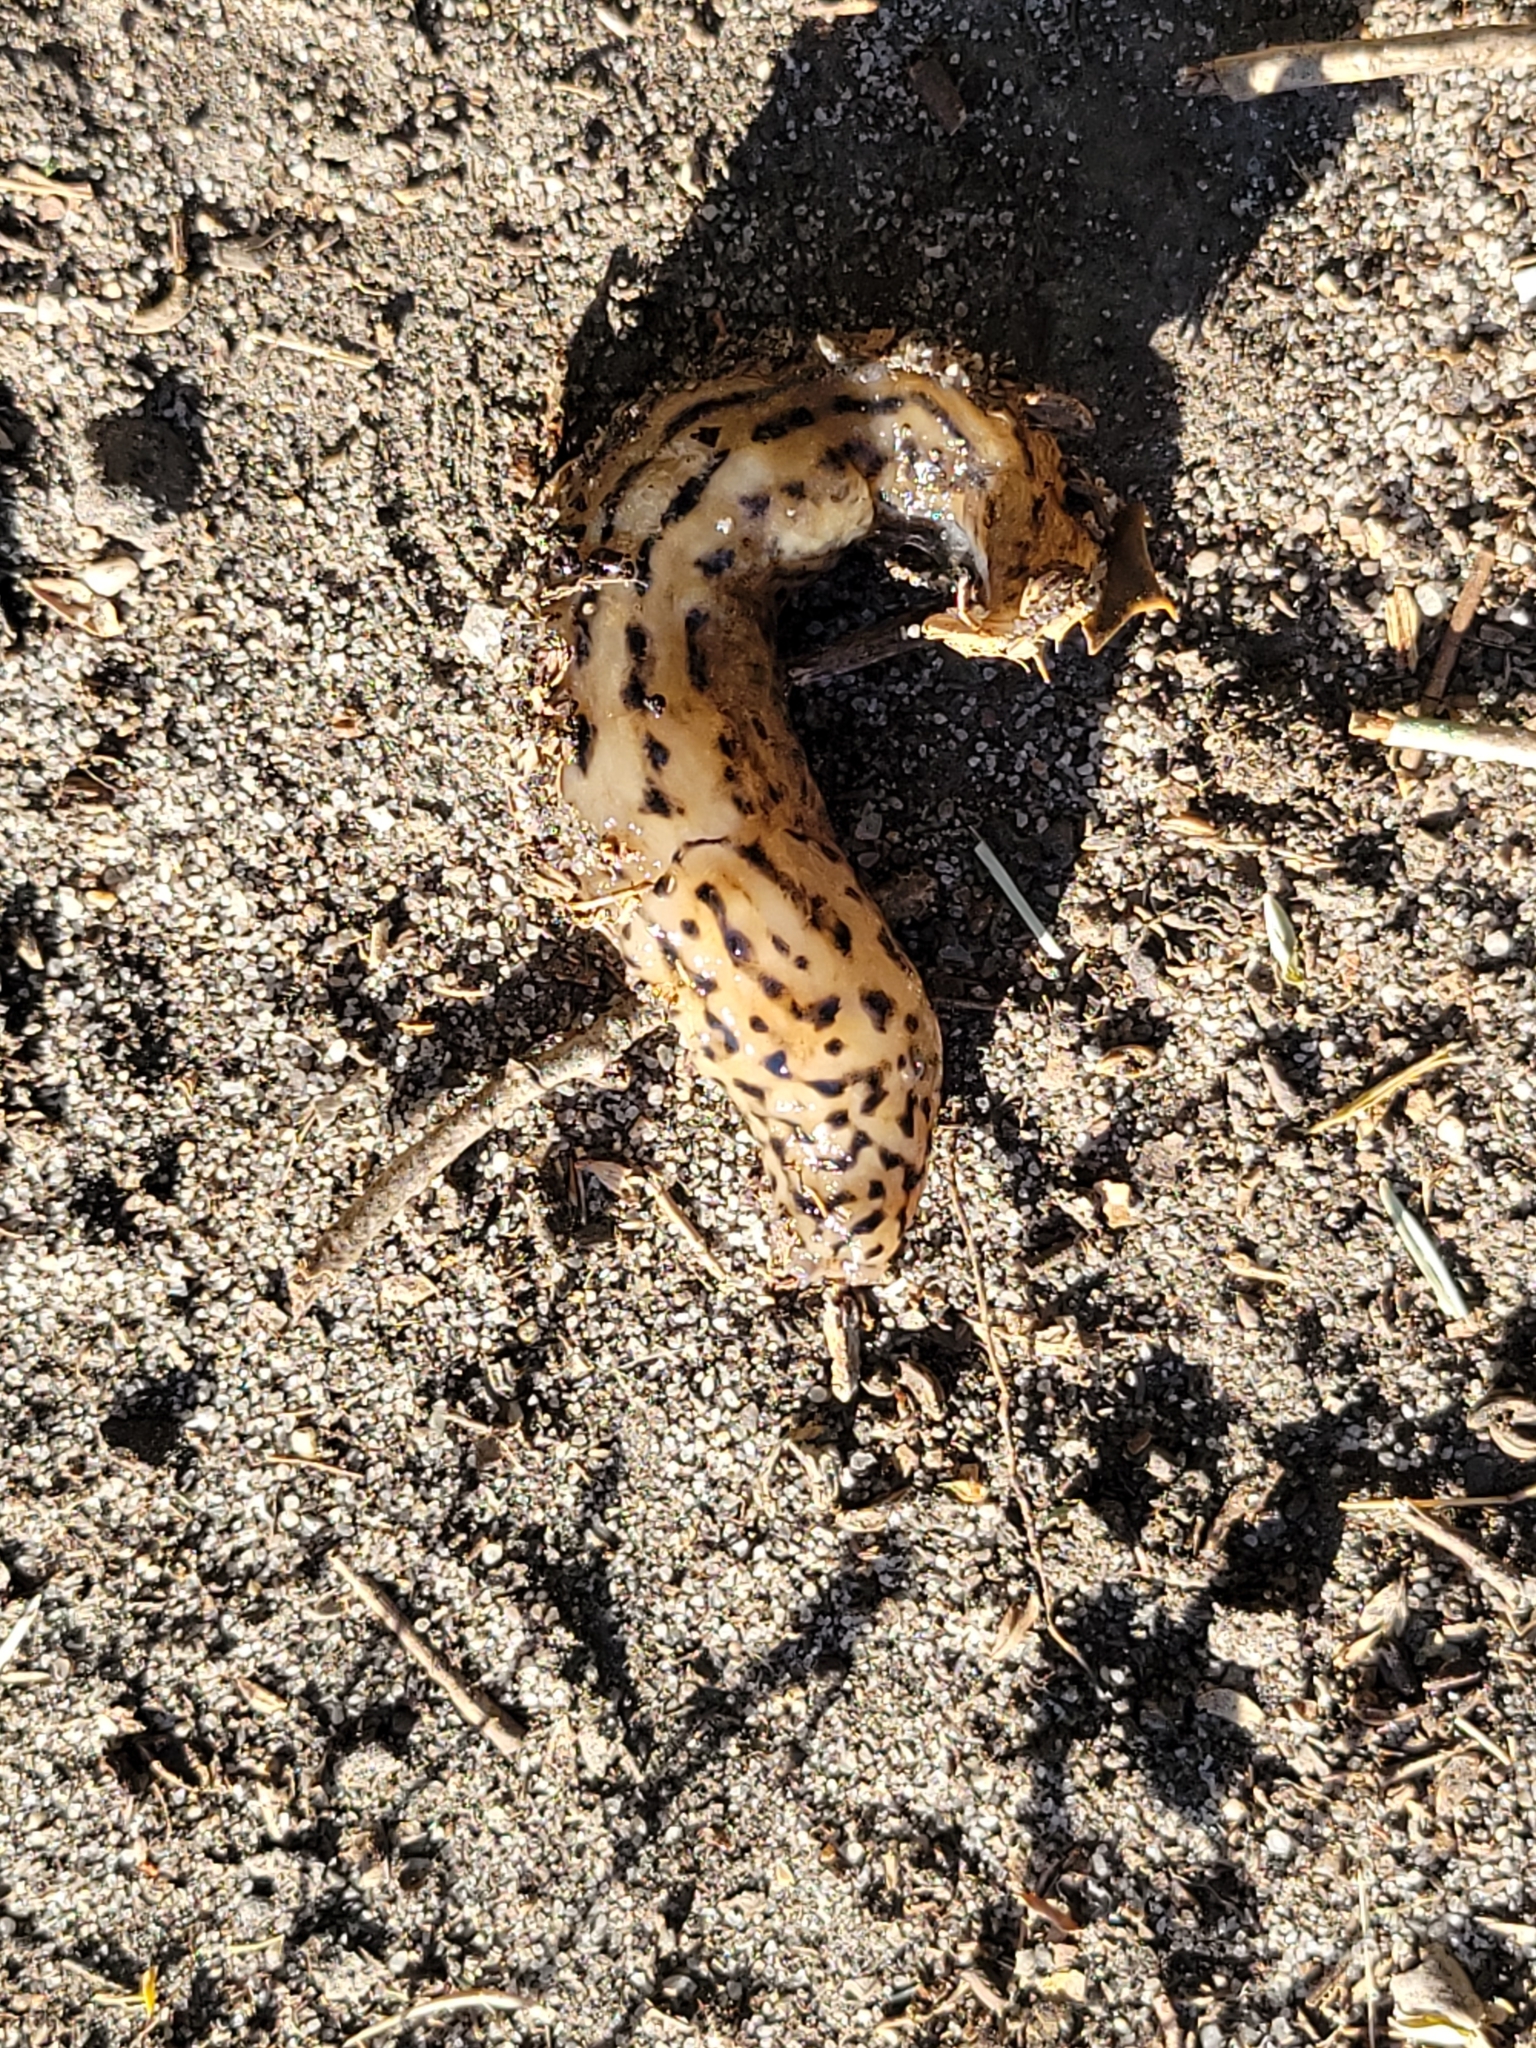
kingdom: Animalia
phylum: Mollusca
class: Gastropoda
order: Stylommatophora
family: Limacidae
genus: Limax
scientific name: Limax maximus
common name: Great grey slug
